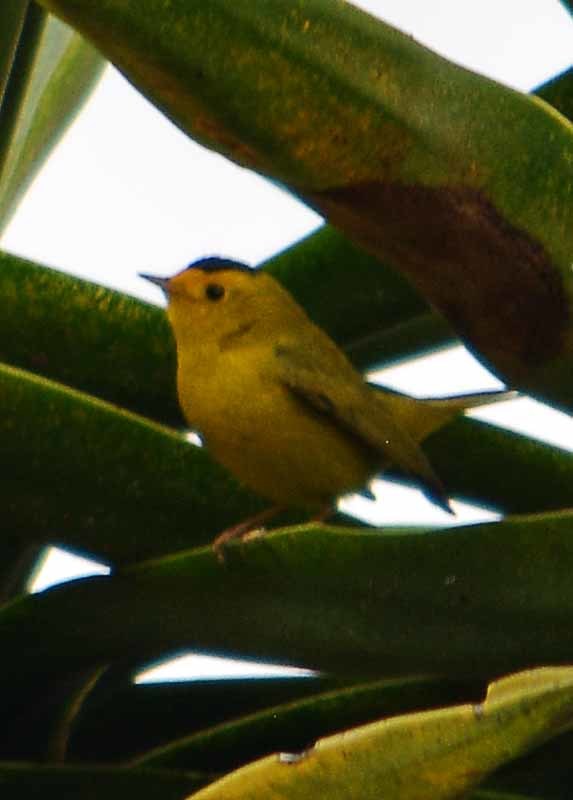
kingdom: Animalia
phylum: Chordata
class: Aves
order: Passeriformes
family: Parulidae
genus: Cardellina
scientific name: Cardellina pusilla
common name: Wilson's warbler
